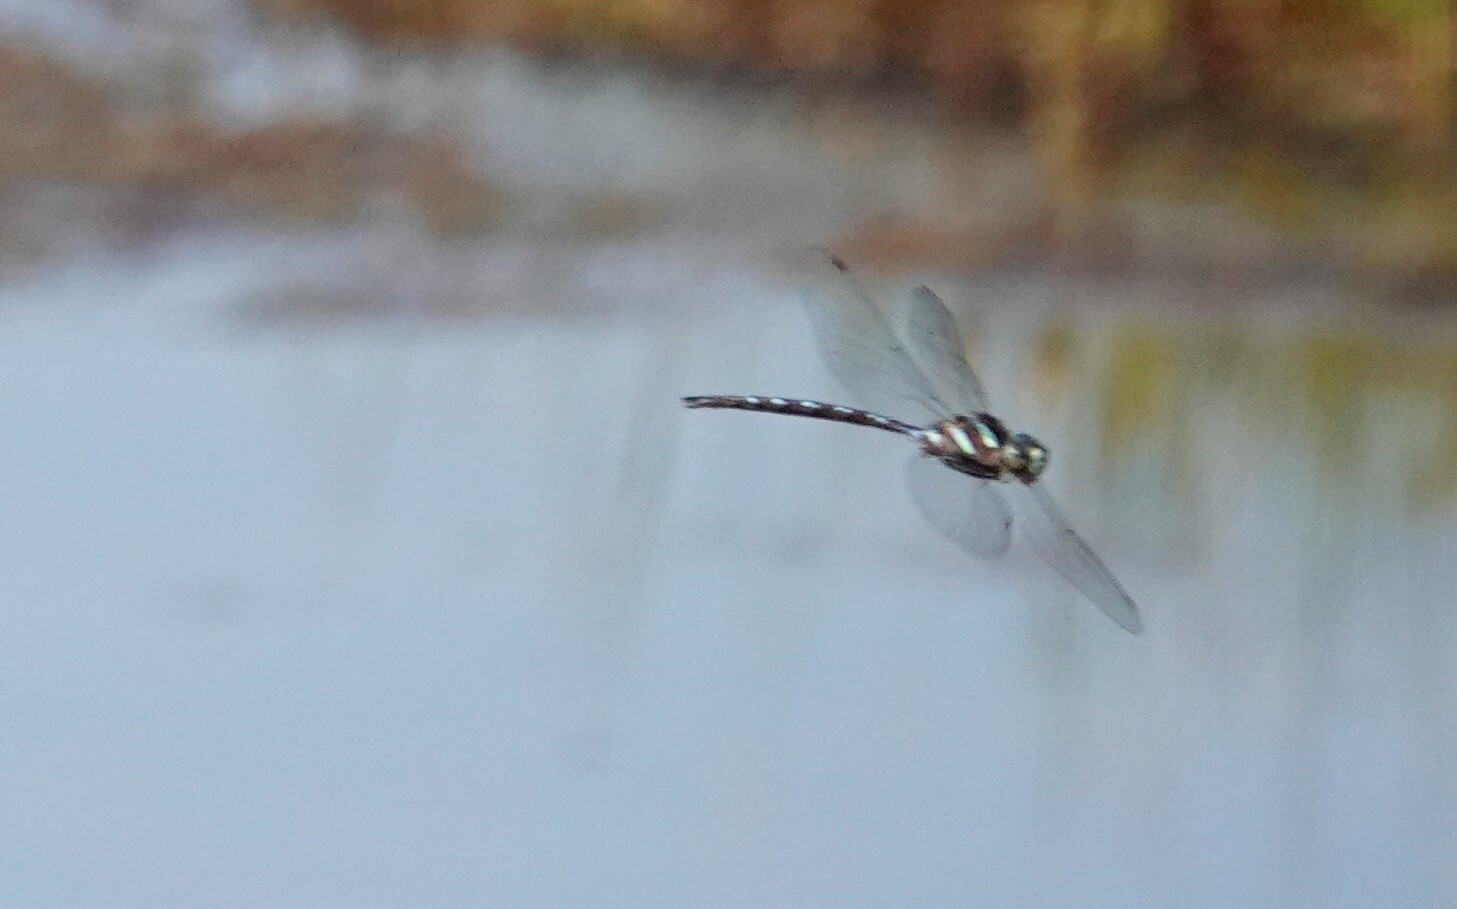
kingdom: Animalia
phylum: Arthropoda
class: Insecta
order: Odonata
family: Aeshnidae
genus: Aeshna
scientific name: Aeshna tuberculifera
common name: Aeschne à tubercules
